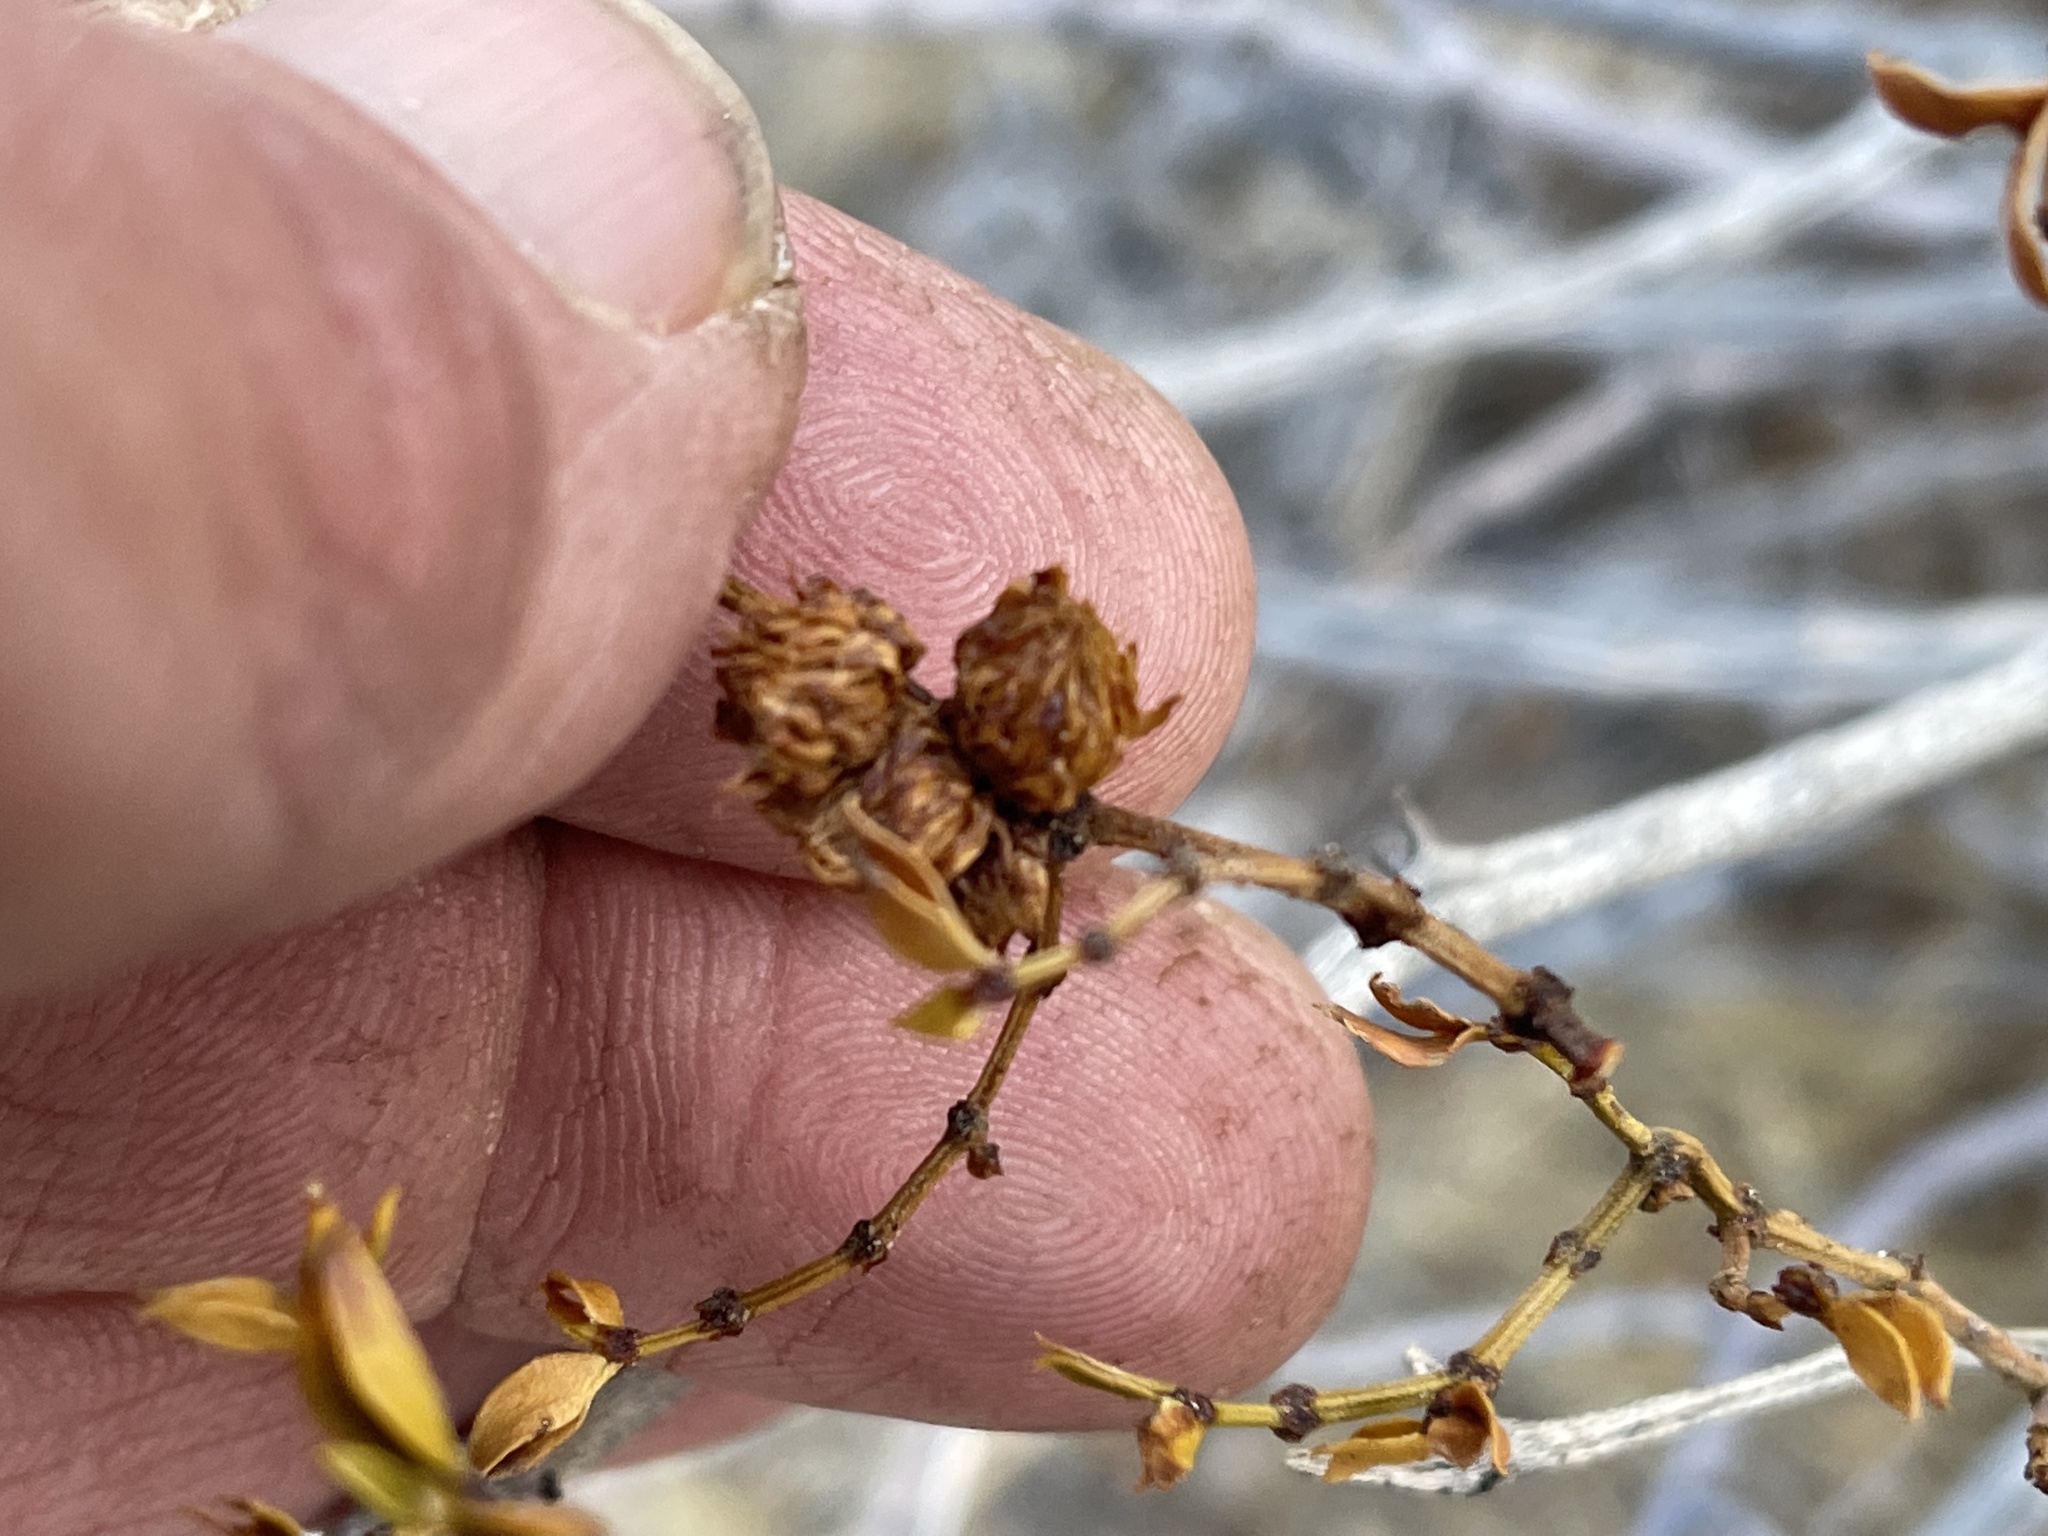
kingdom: Animalia
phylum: Arthropoda
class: Insecta
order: Diptera
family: Cecidomyiidae
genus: Asphondylia
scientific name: Asphondylia rosetta
